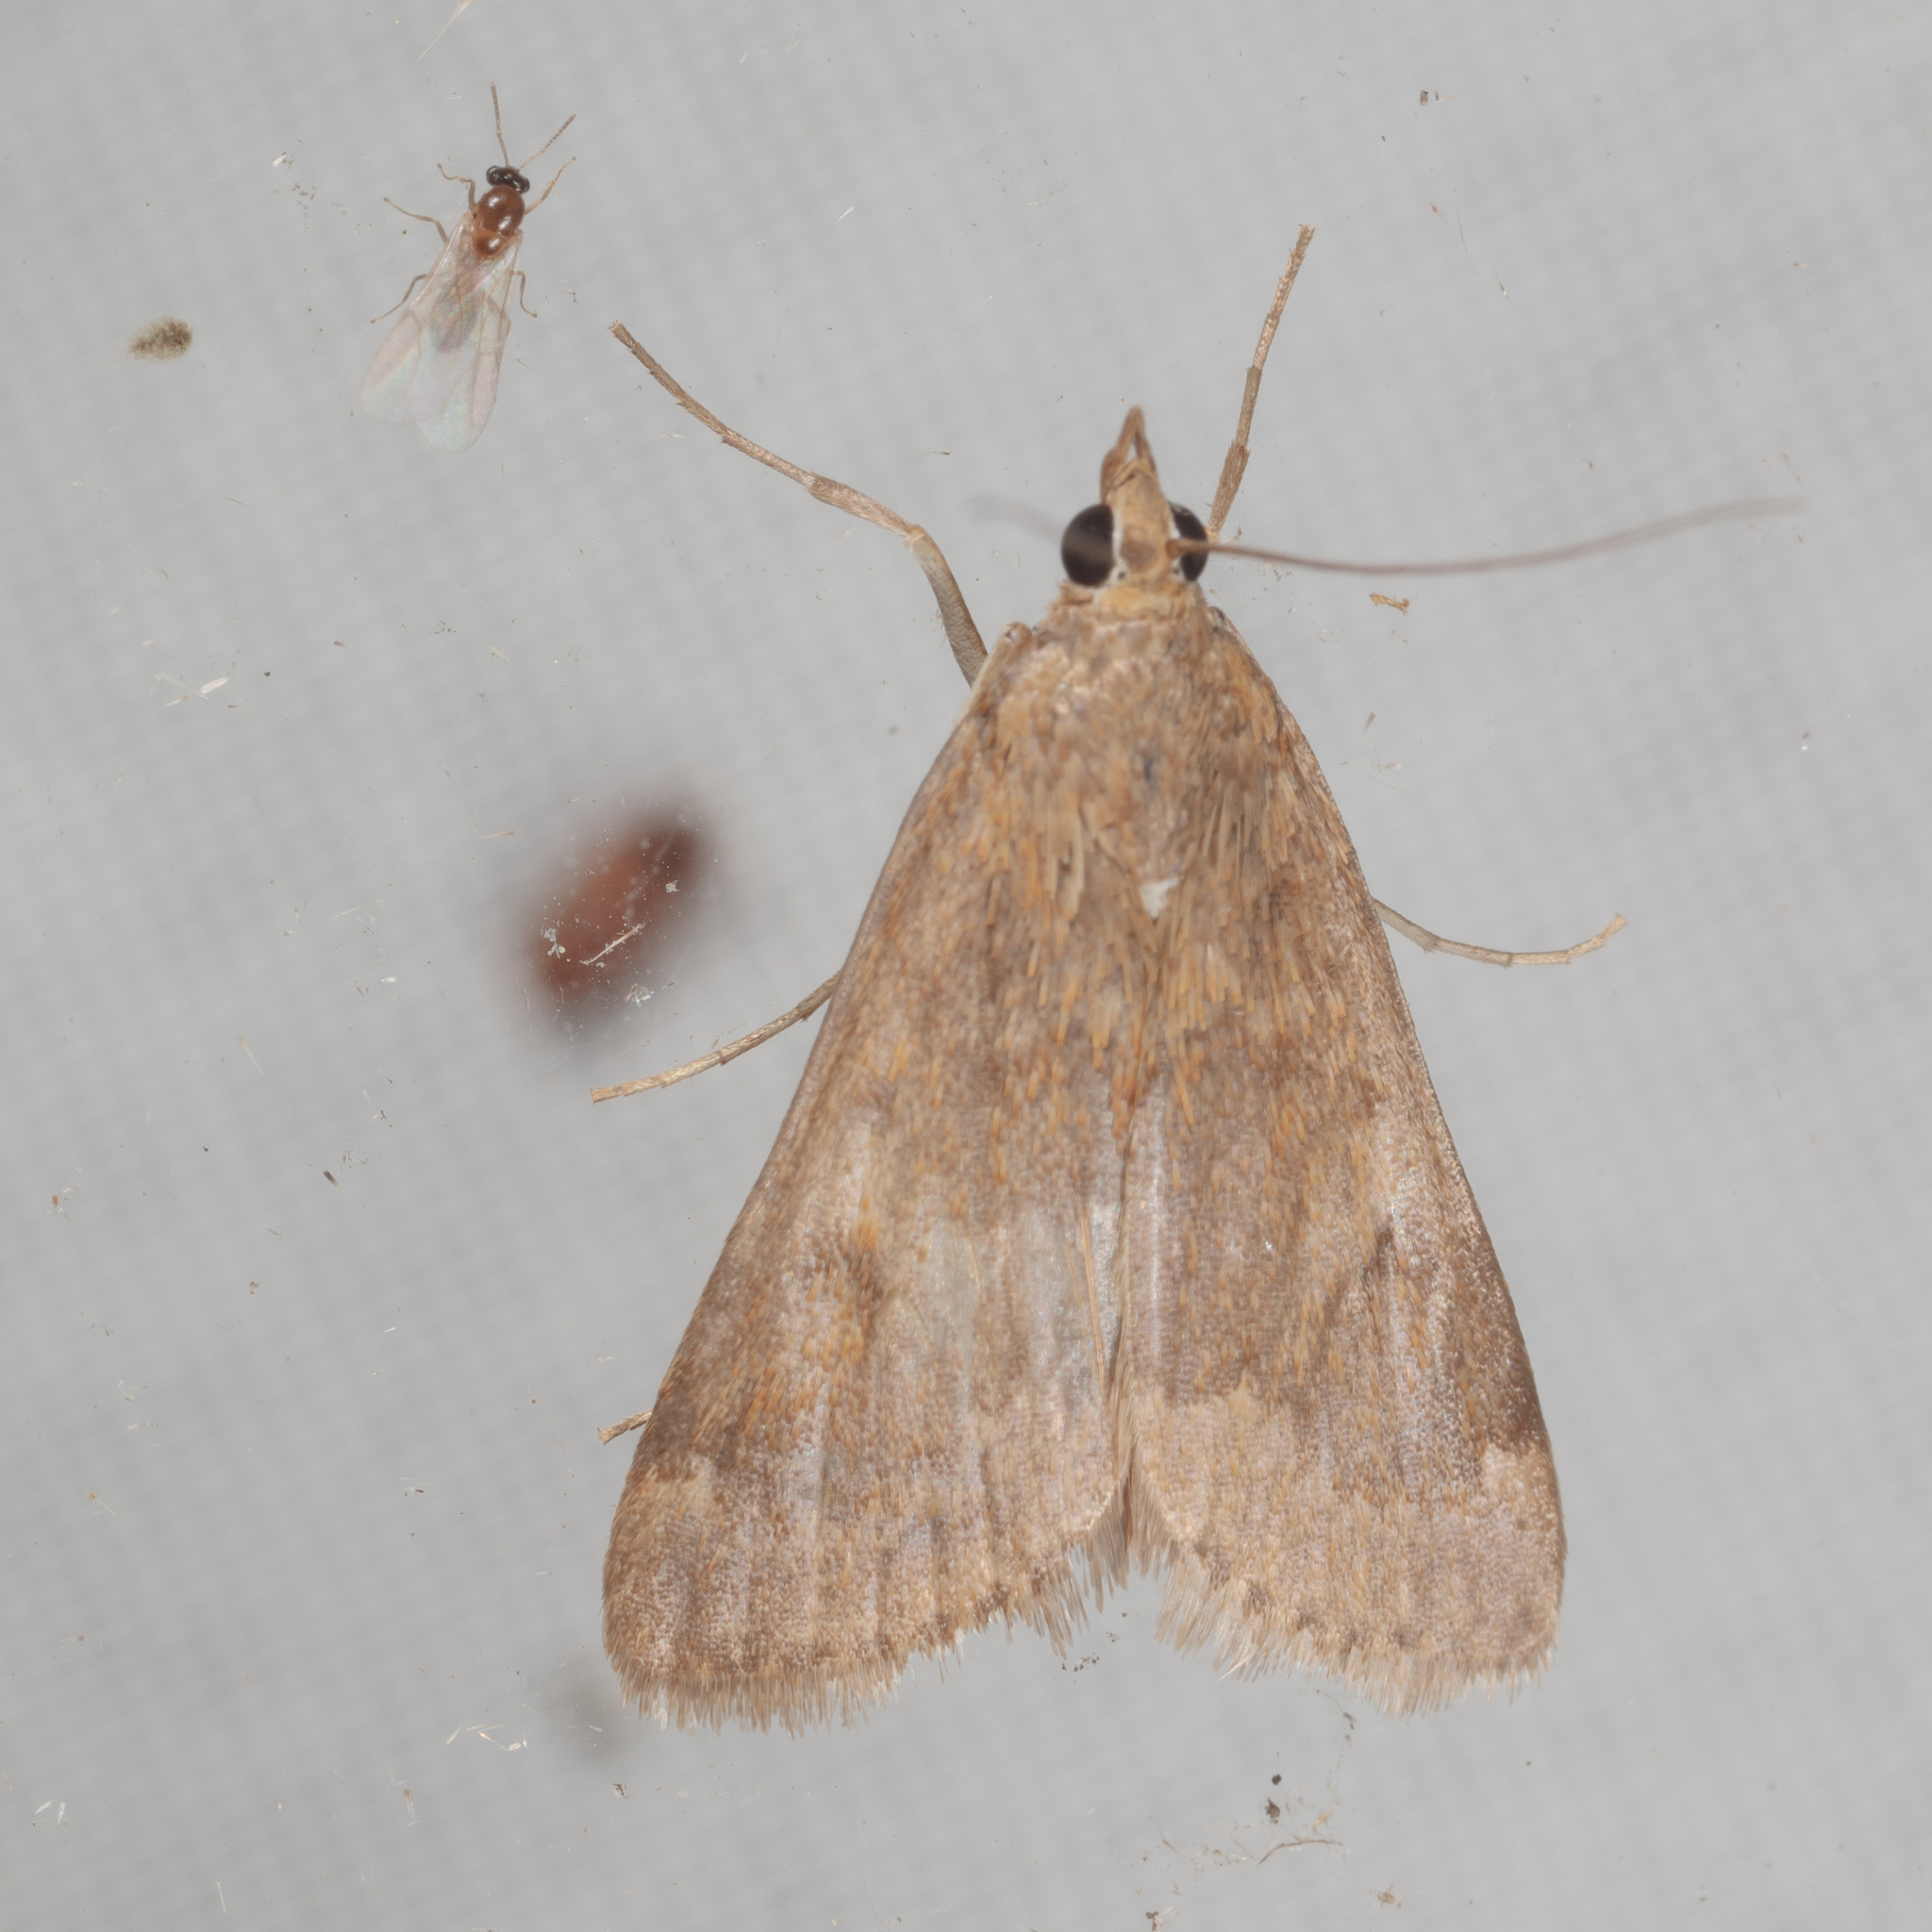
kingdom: Animalia
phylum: Arthropoda
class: Insecta
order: Lepidoptera
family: Crambidae
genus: Achyra
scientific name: Achyra rantalis
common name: Garden webworm
